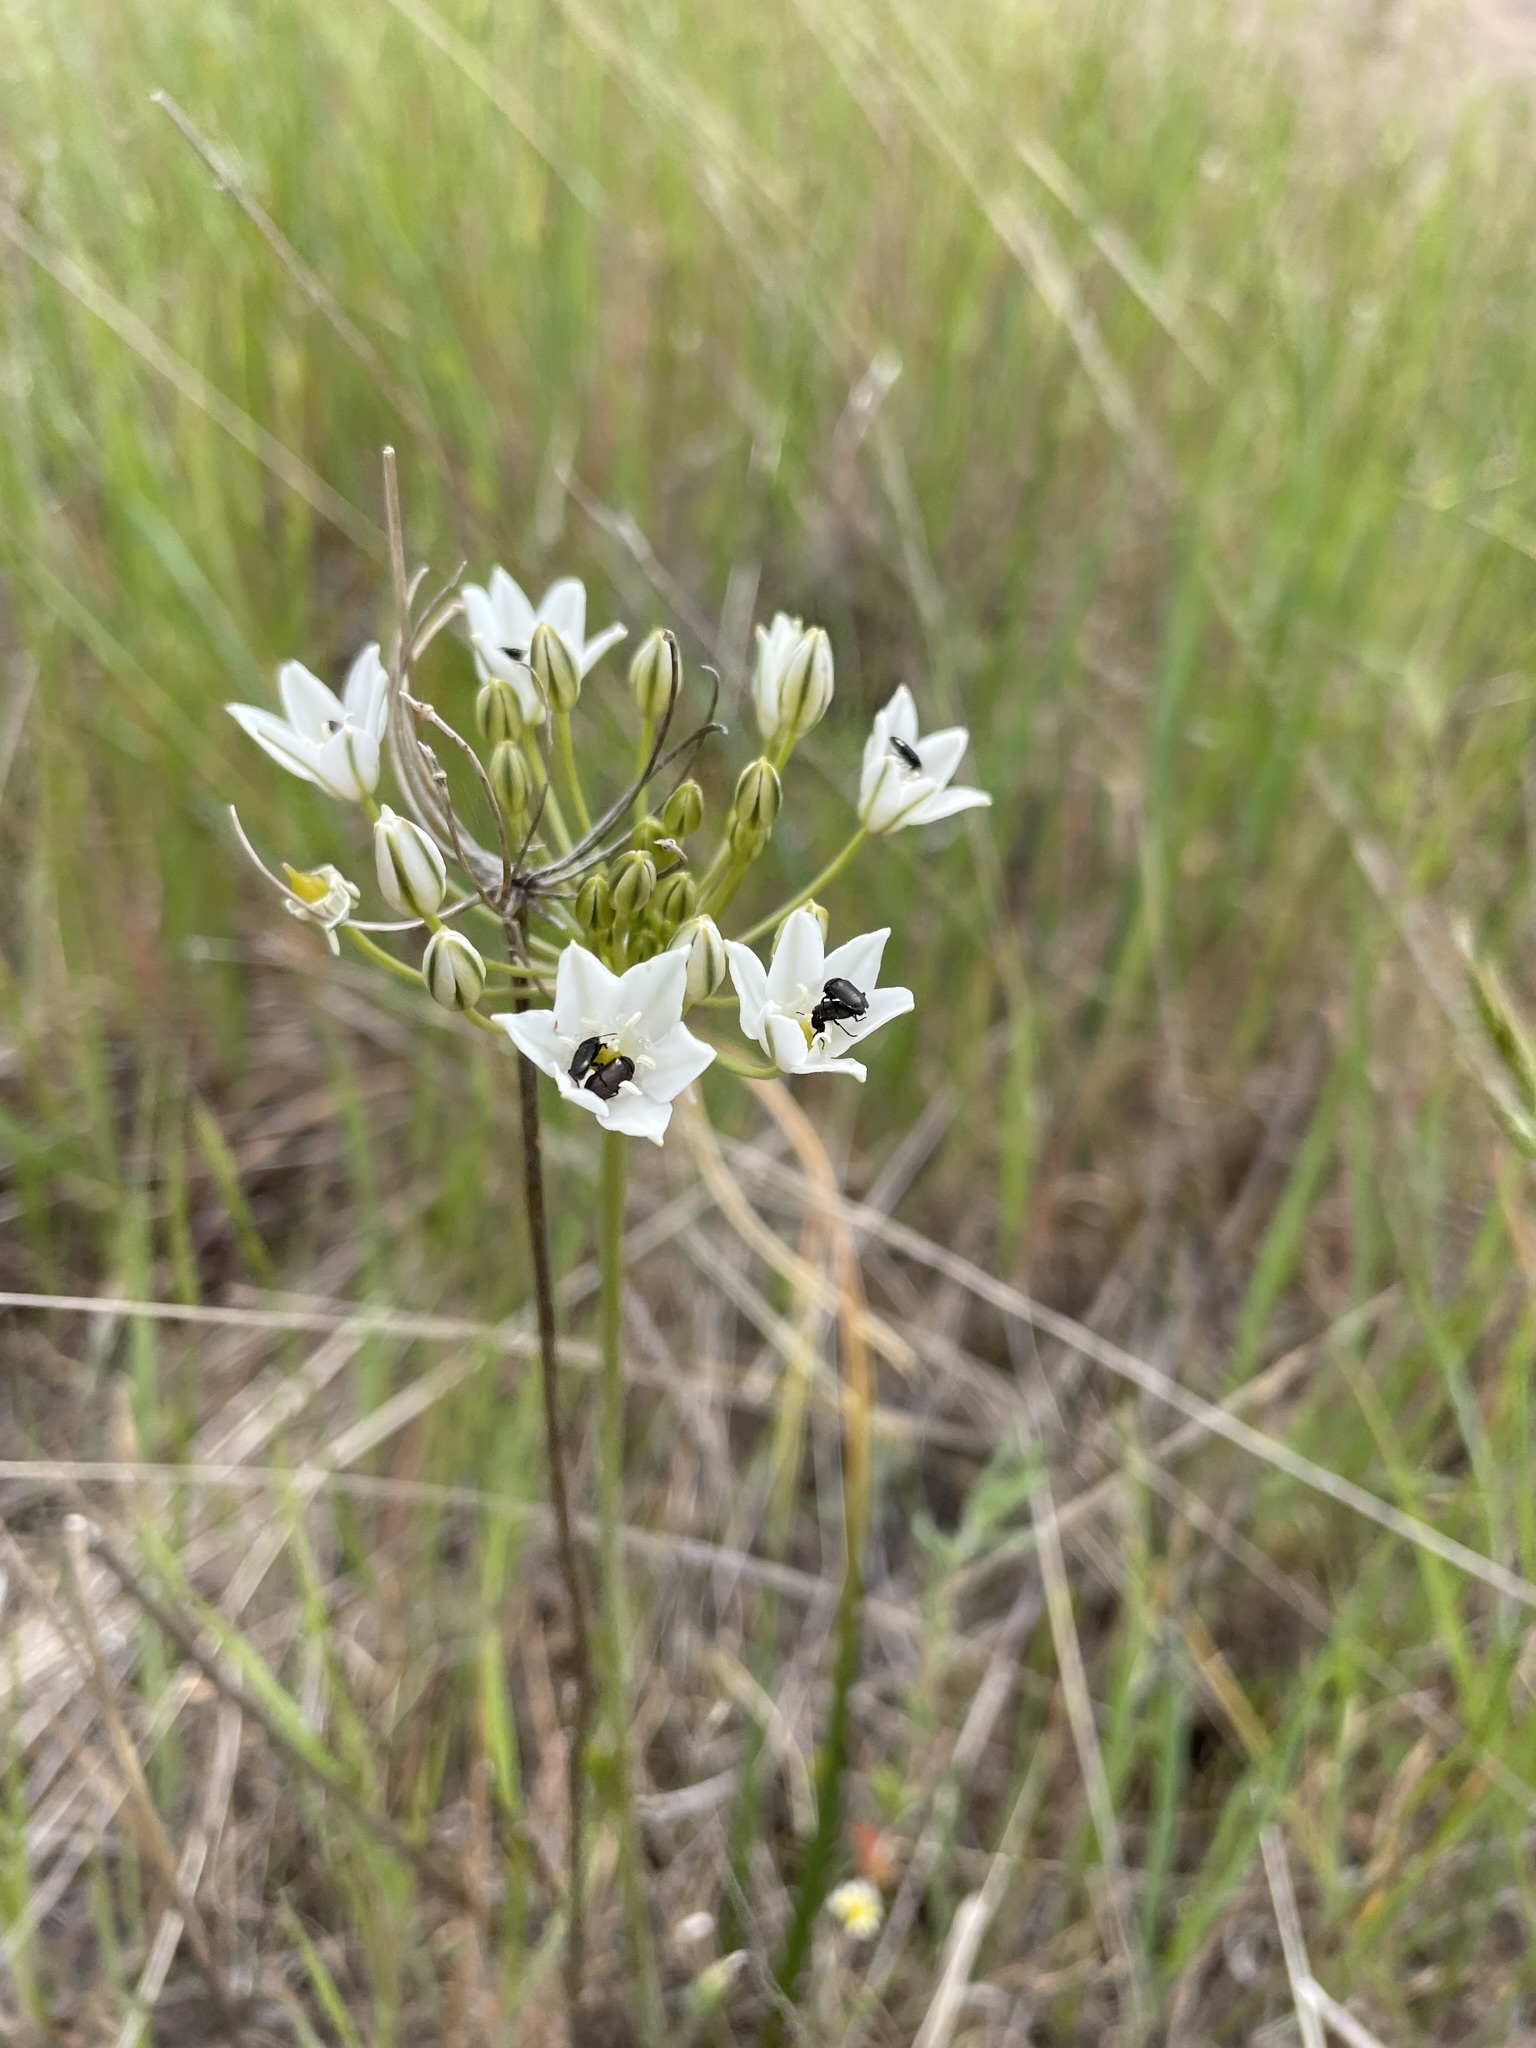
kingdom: Plantae
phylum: Tracheophyta
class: Liliopsida
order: Asparagales
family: Asparagaceae
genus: Triteleia
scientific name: Triteleia hyacinthina
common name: White brodiaea
